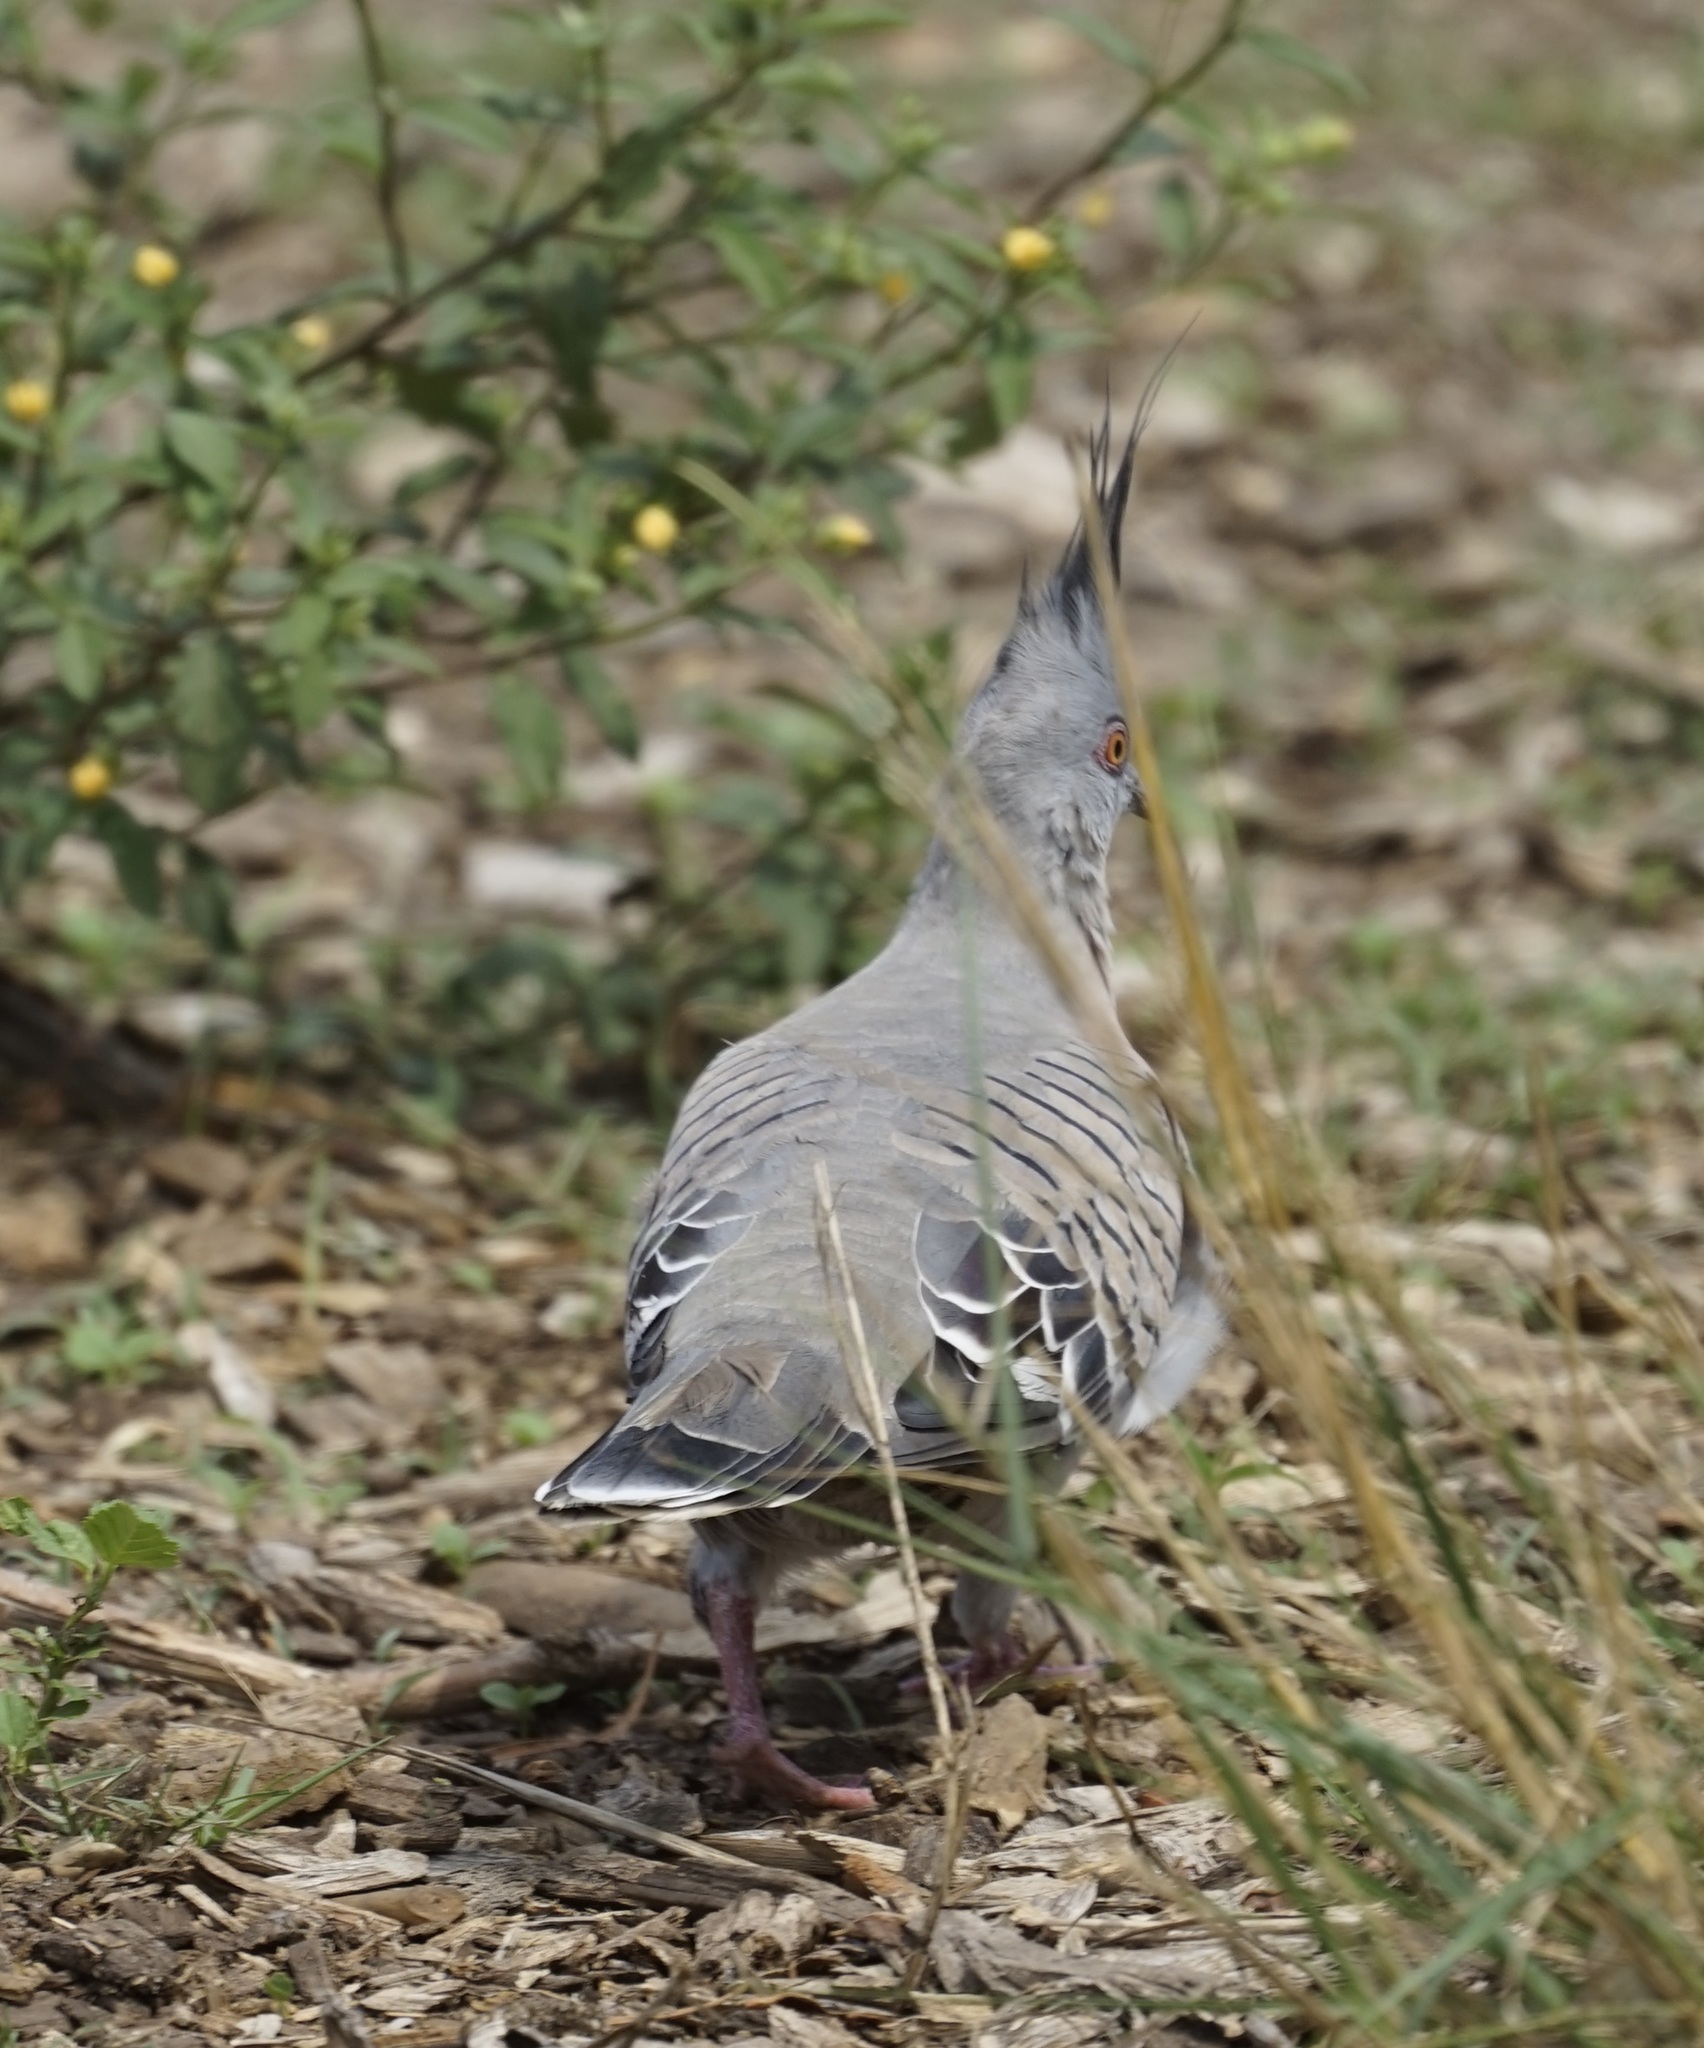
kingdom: Animalia
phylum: Chordata
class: Aves
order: Columbiformes
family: Columbidae
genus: Ocyphaps
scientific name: Ocyphaps lophotes
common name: Crested pigeon
